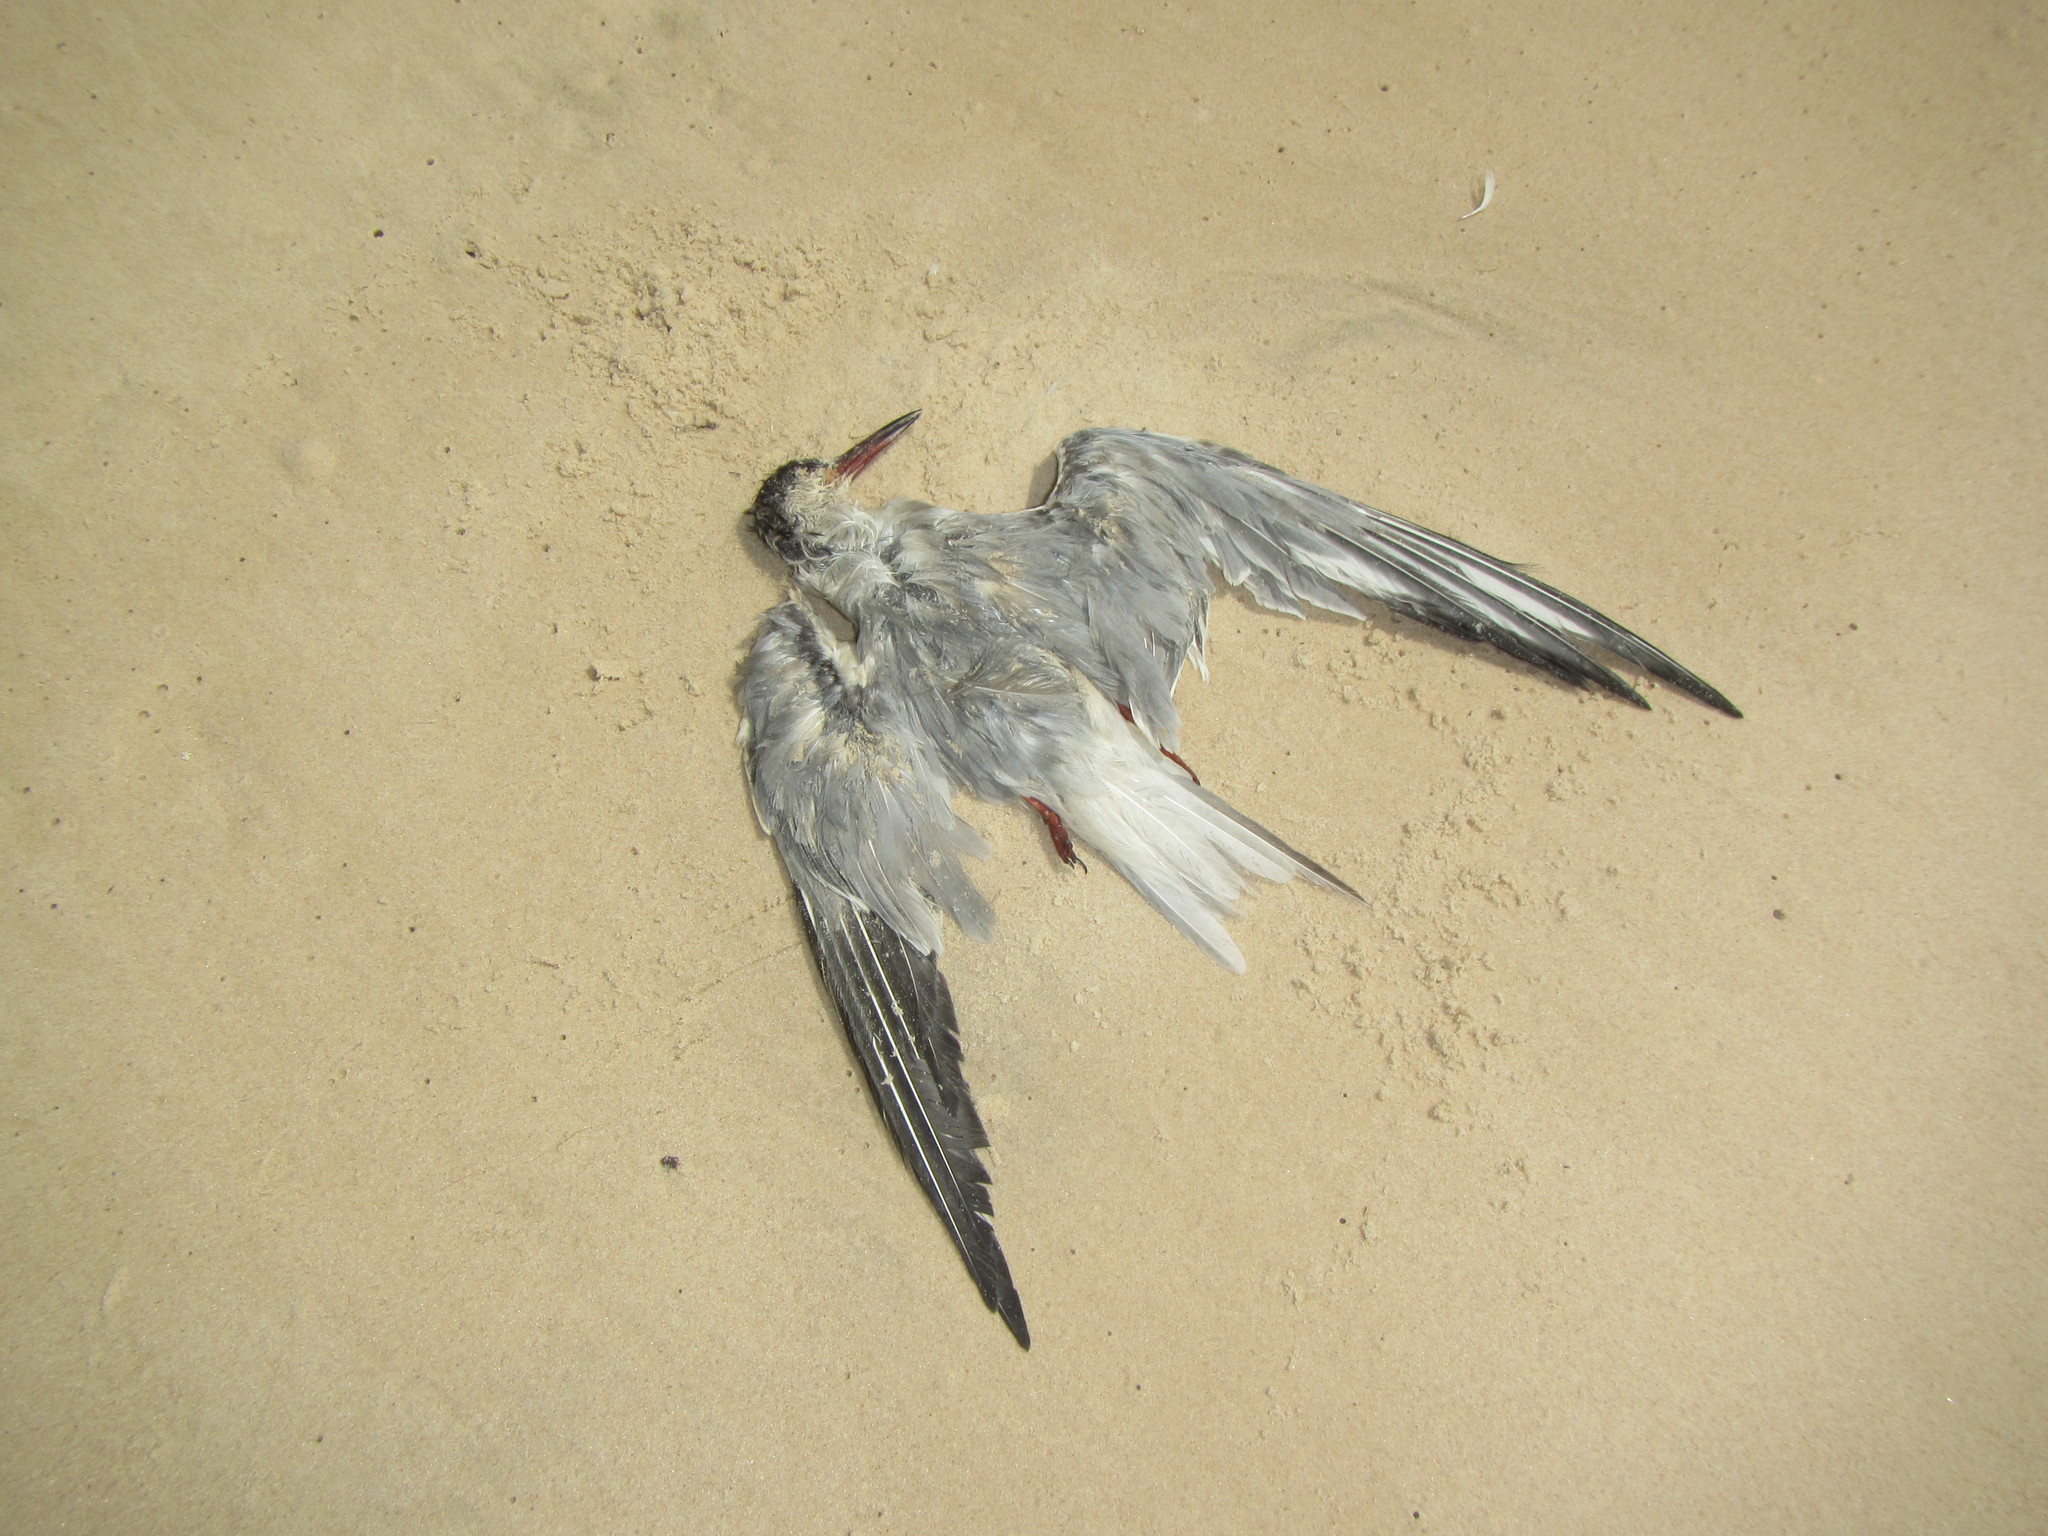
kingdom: Animalia
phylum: Chordata
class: Aves
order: Charadriiformes
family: Laridae
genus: Sterna
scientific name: Sterna hirundo
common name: Common tern
